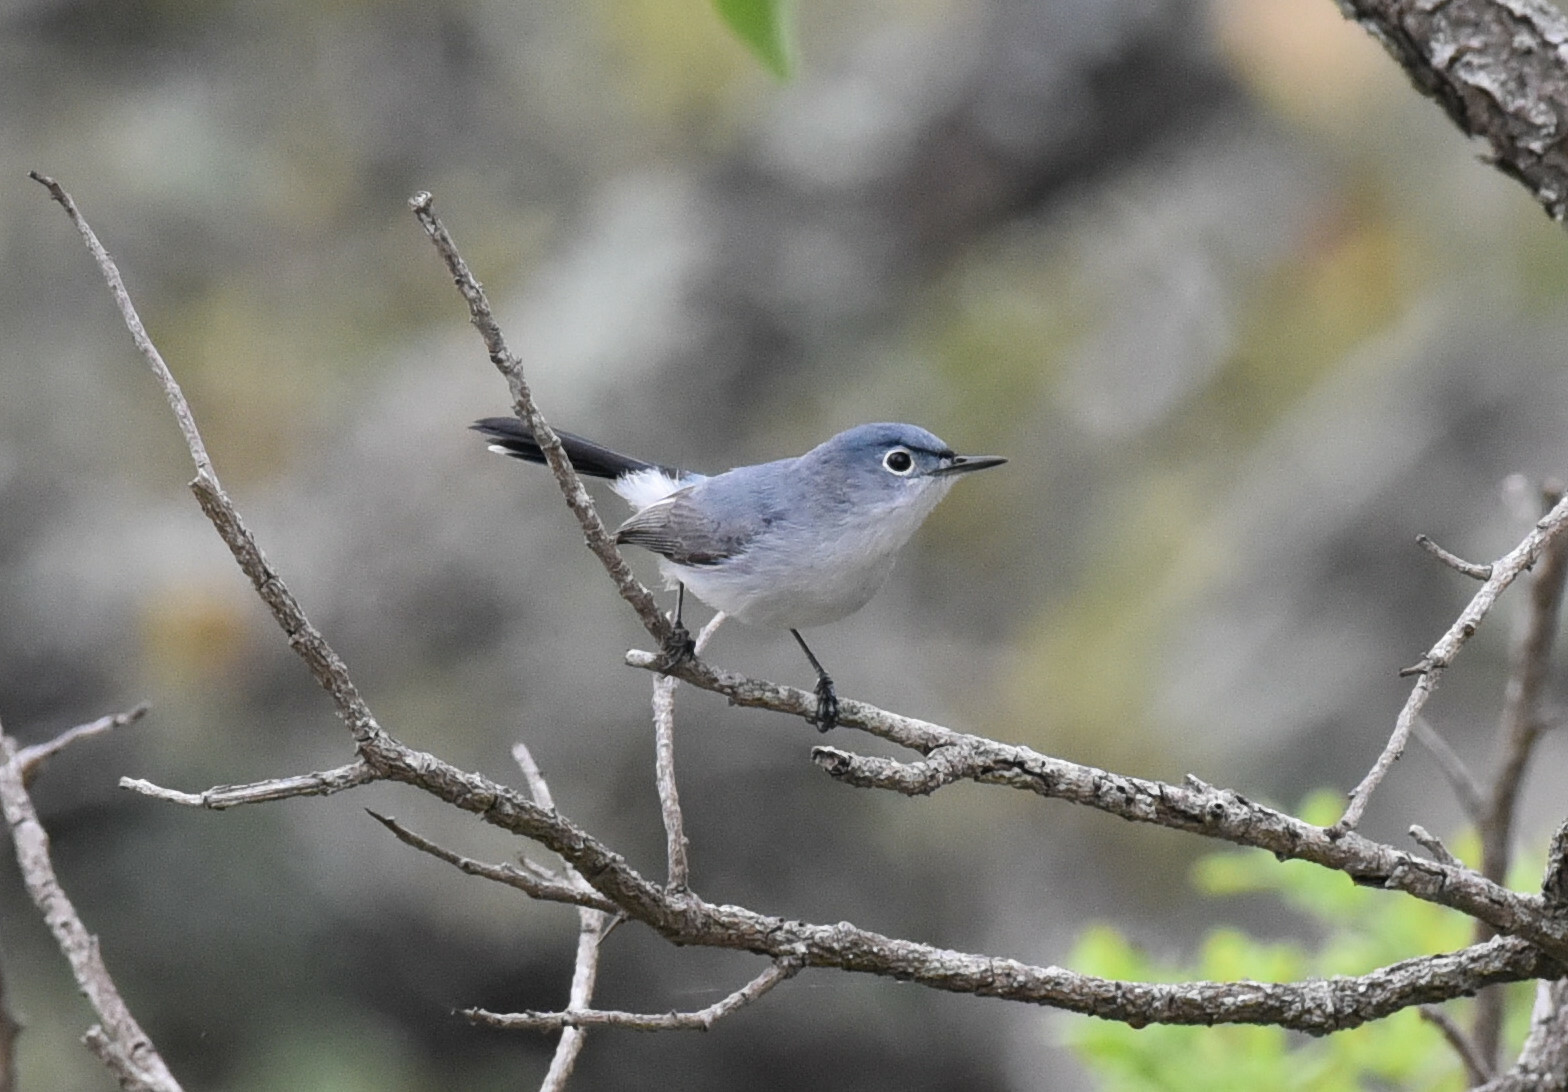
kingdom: Animalia
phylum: Chordata
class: Aves
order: Passeriformes
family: Polioptilidae
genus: Polioptila
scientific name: Polioptila caerulea
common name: Blue-gray gnatcatcher
